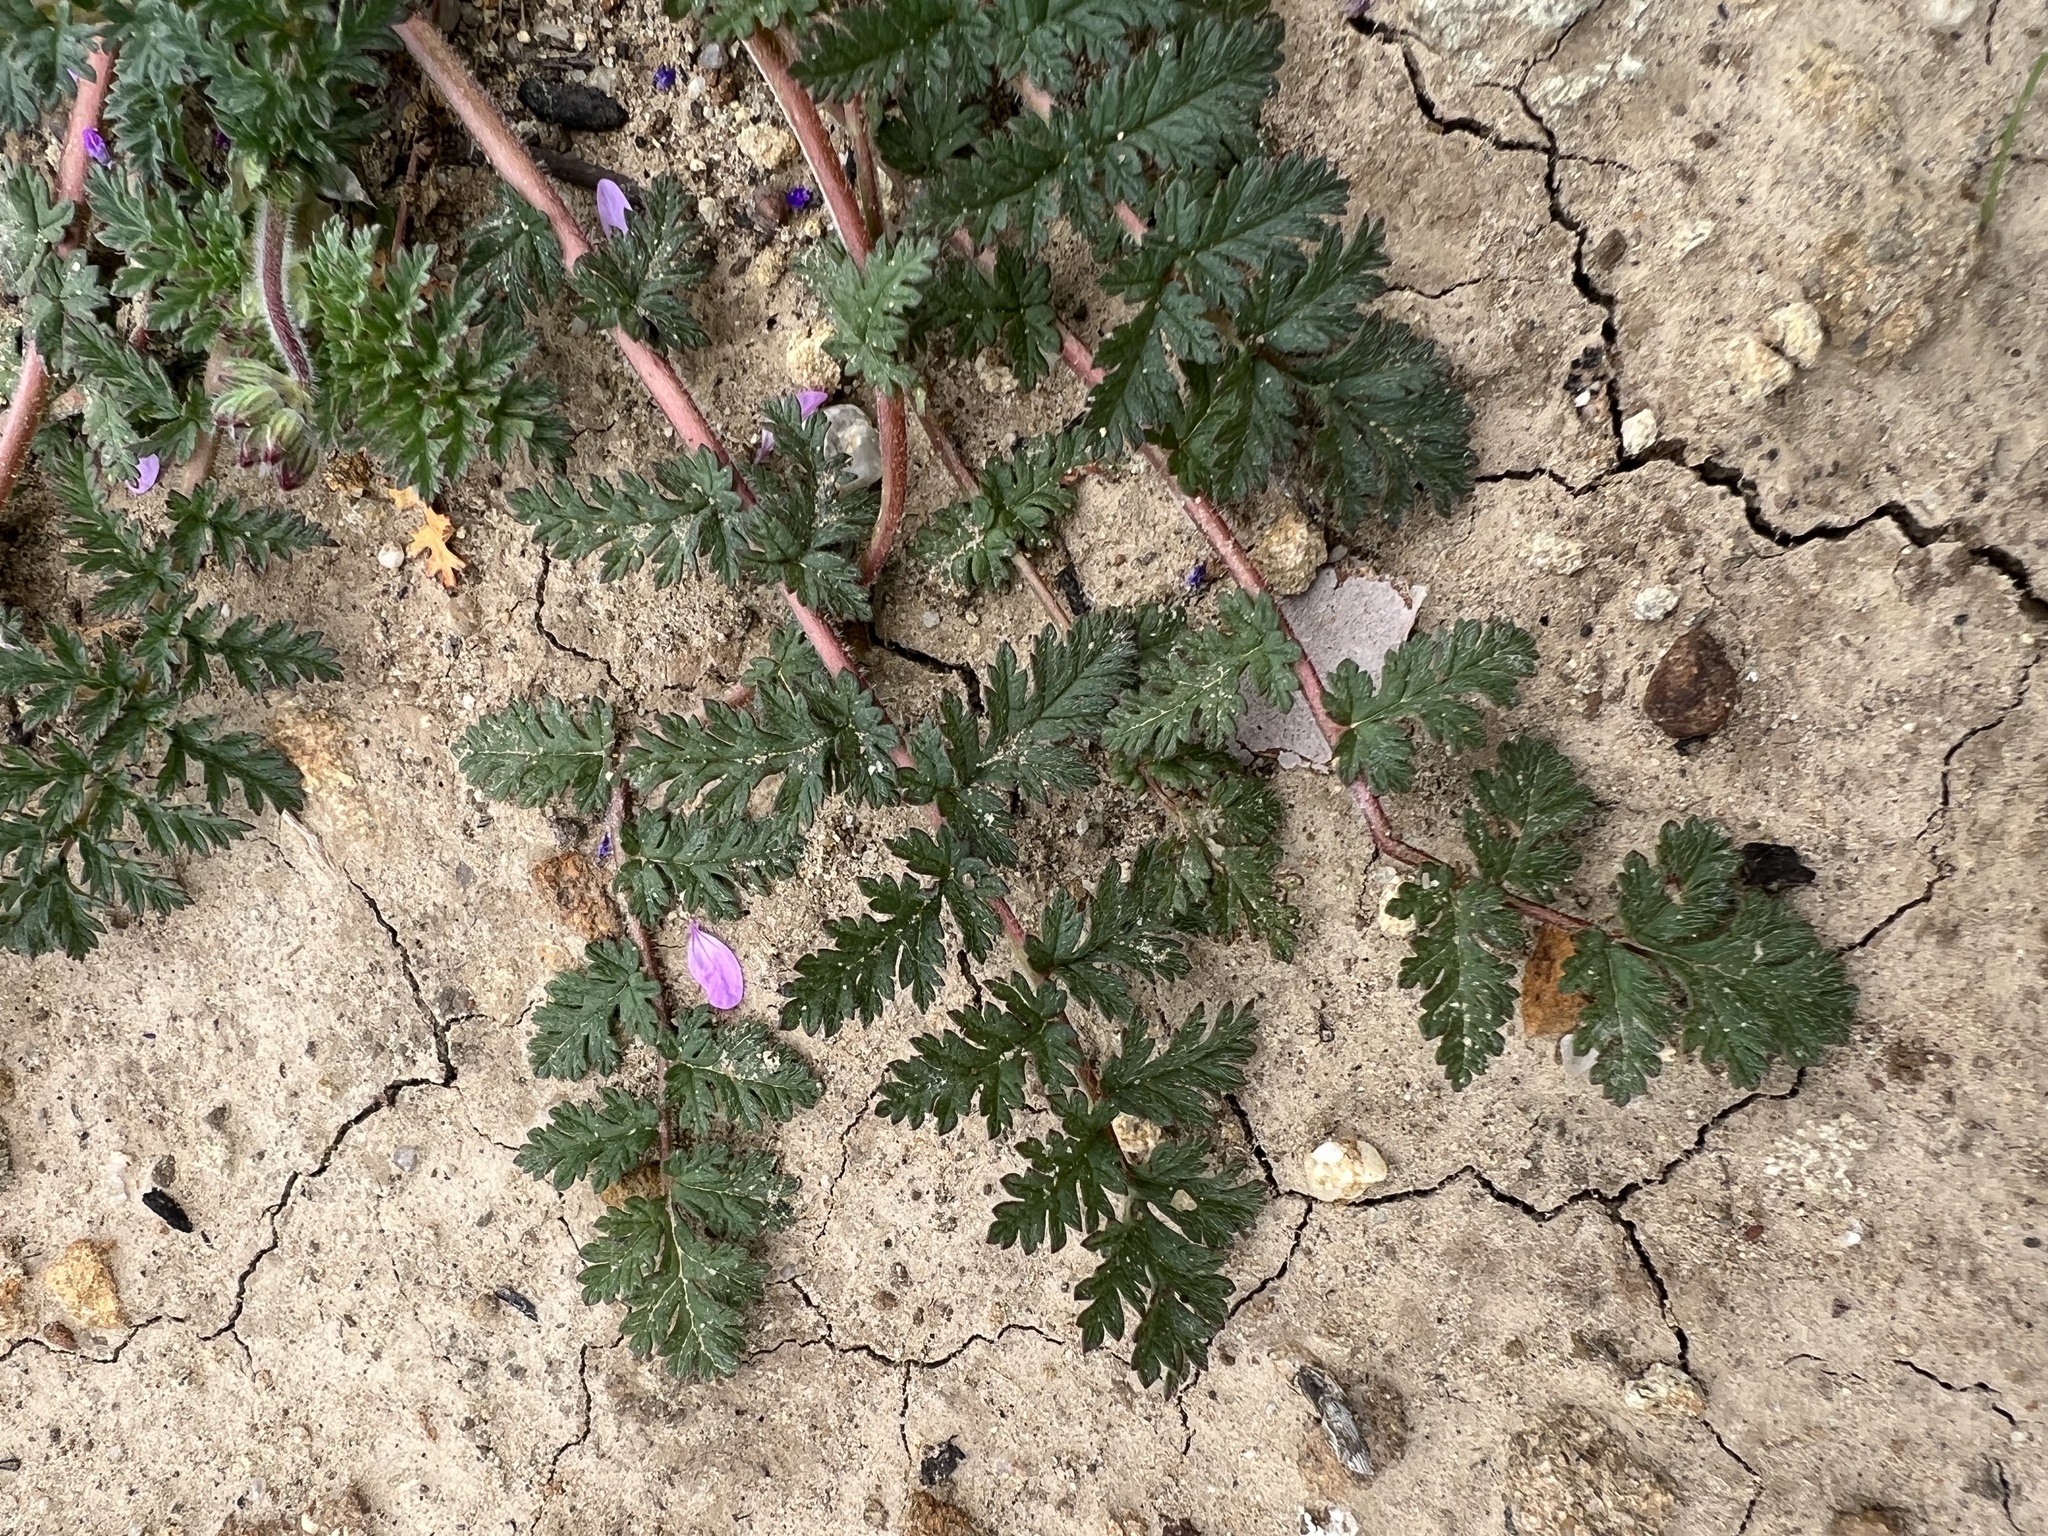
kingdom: Plantae
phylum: Tracheophyta
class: Magnoliopsida
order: Geraniales
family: Geraniaceae
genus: Erodium
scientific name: Erodium cicutarium
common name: Common stork's-bill
